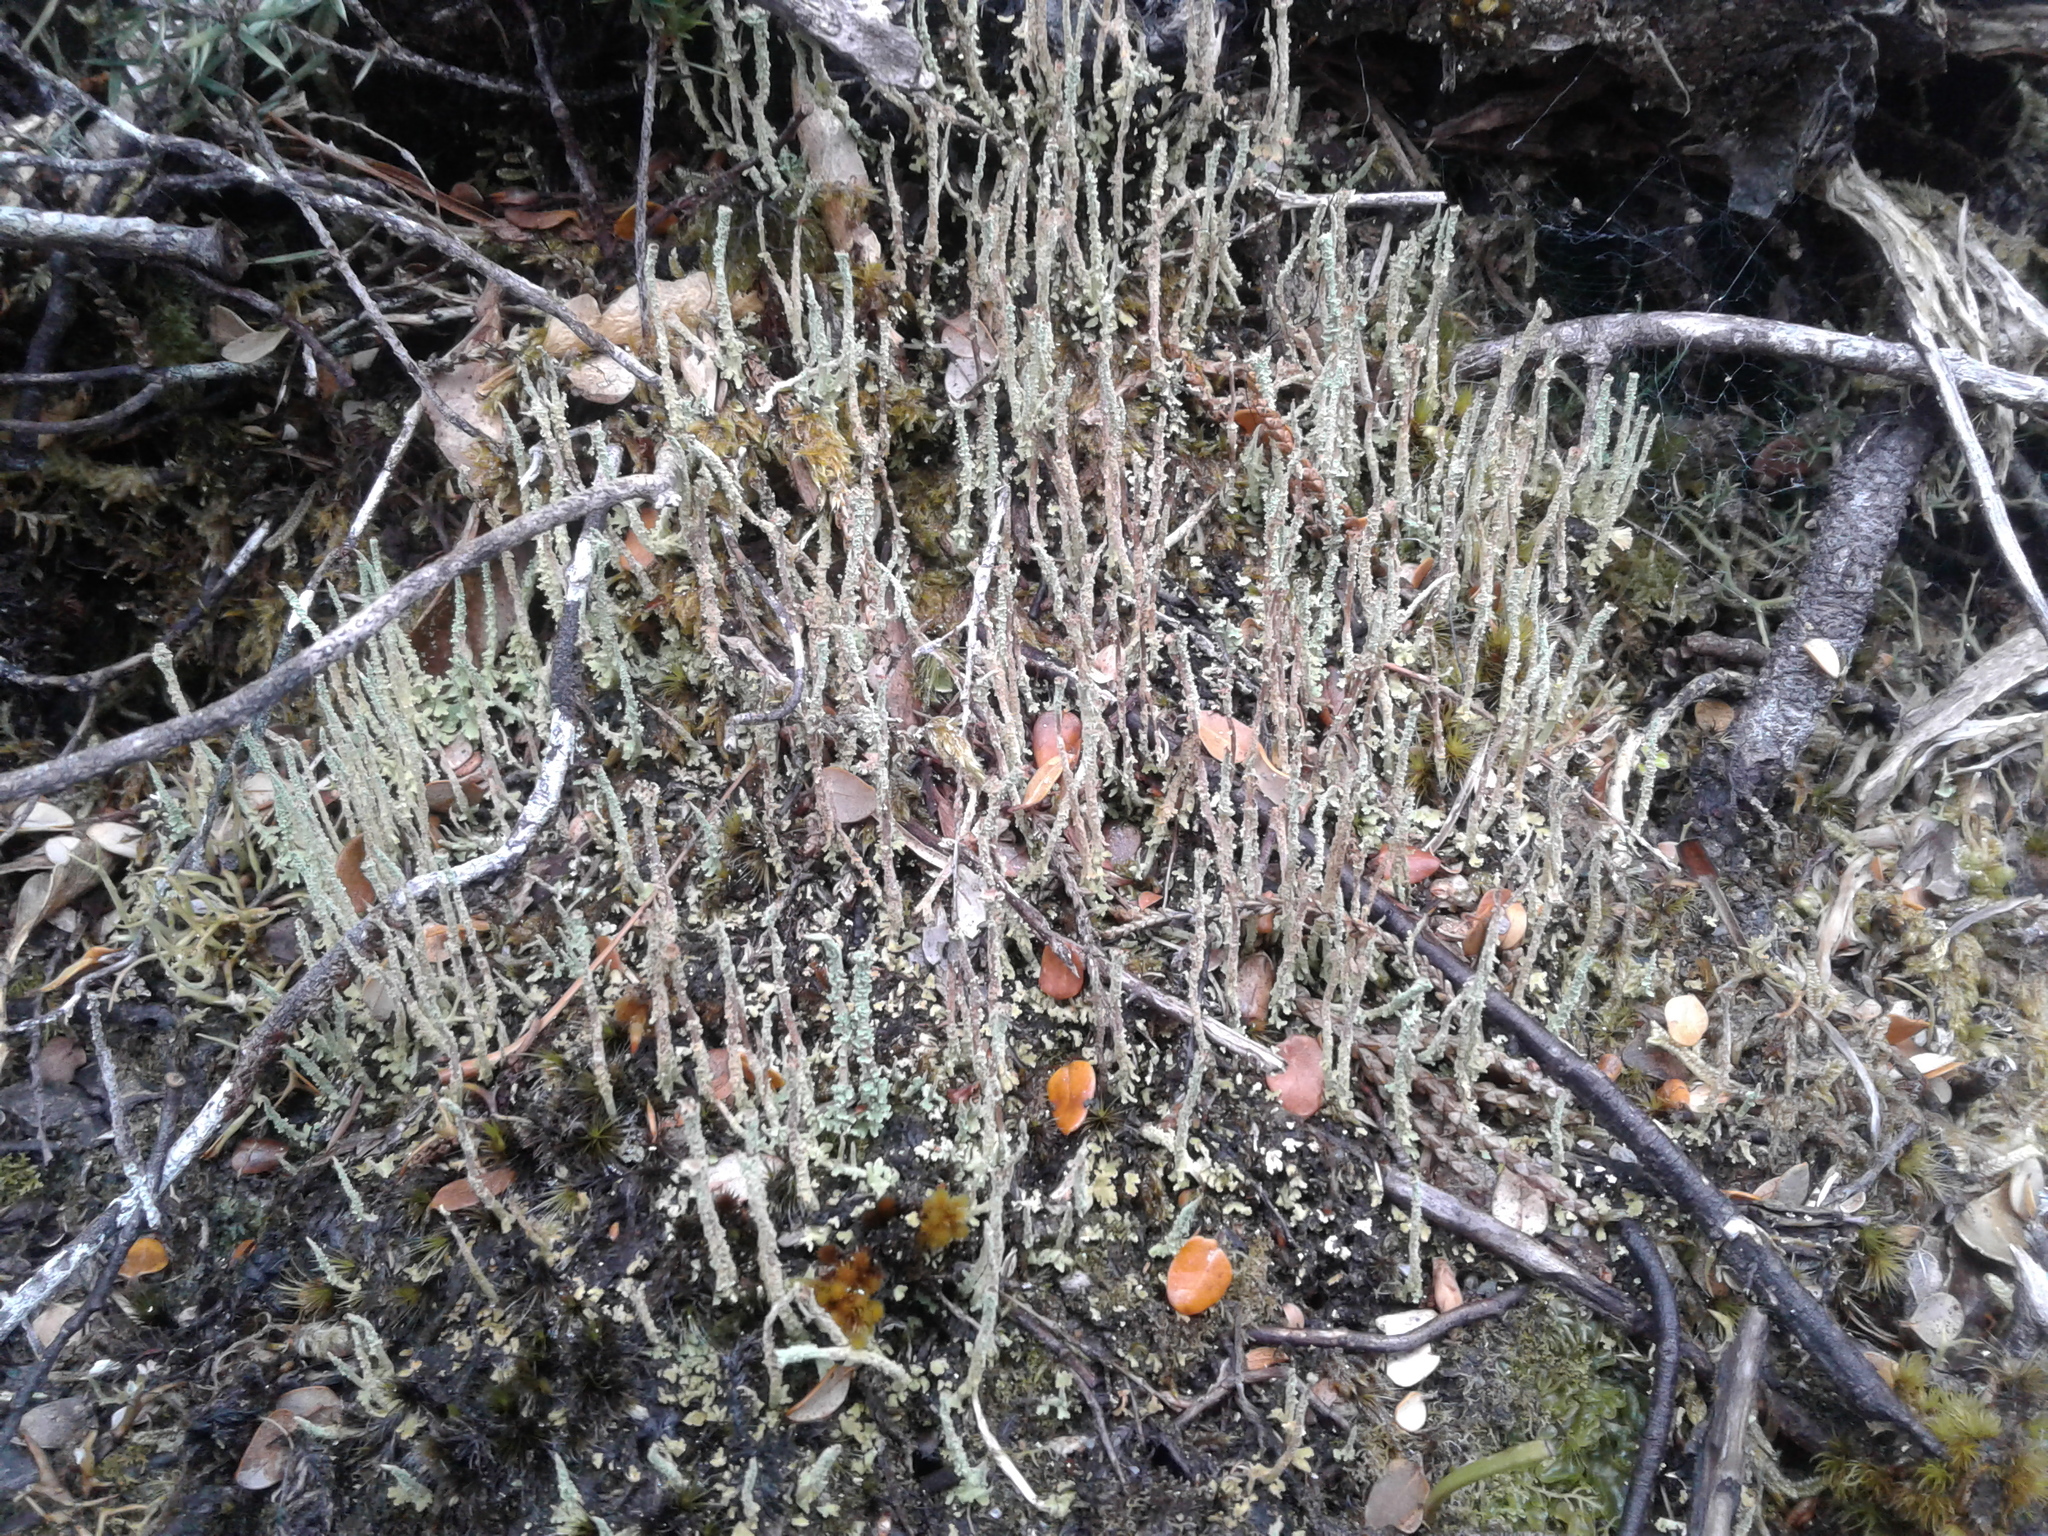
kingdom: Fungi
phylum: Ascomycota
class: Lecanoromycetes
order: Lecanorales
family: Cladoniaceae
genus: Cladonia
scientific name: Cladonia
